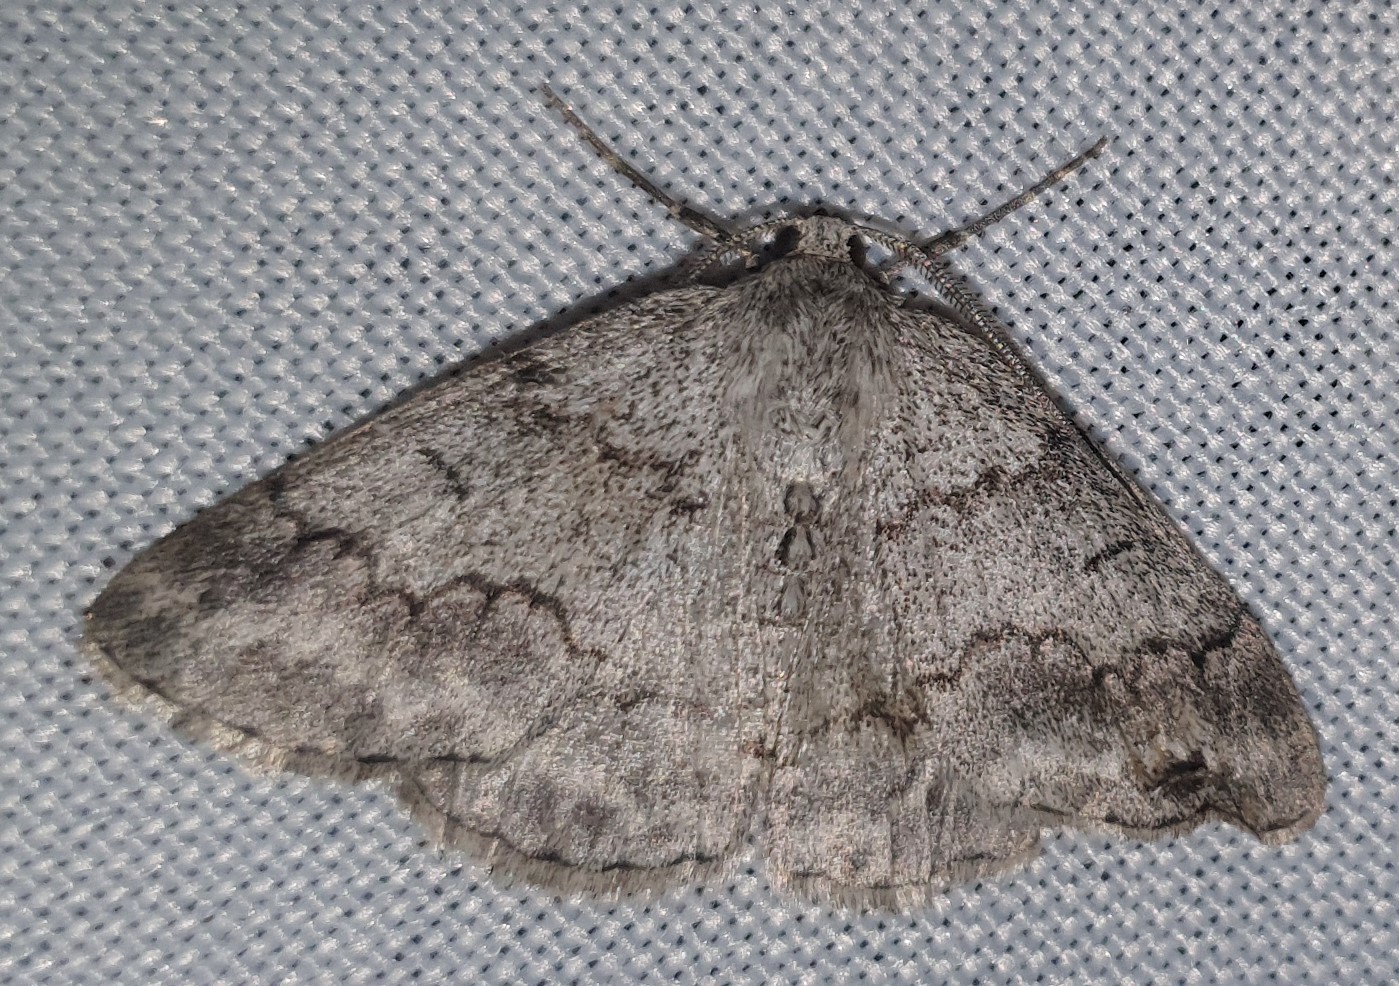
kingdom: Animalia
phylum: Arthropoda
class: Insecta
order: Lepidoptera
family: Geometridae
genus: Pseudoterpna
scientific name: Pseudoterpna coronillaria
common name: Jersey emerald
